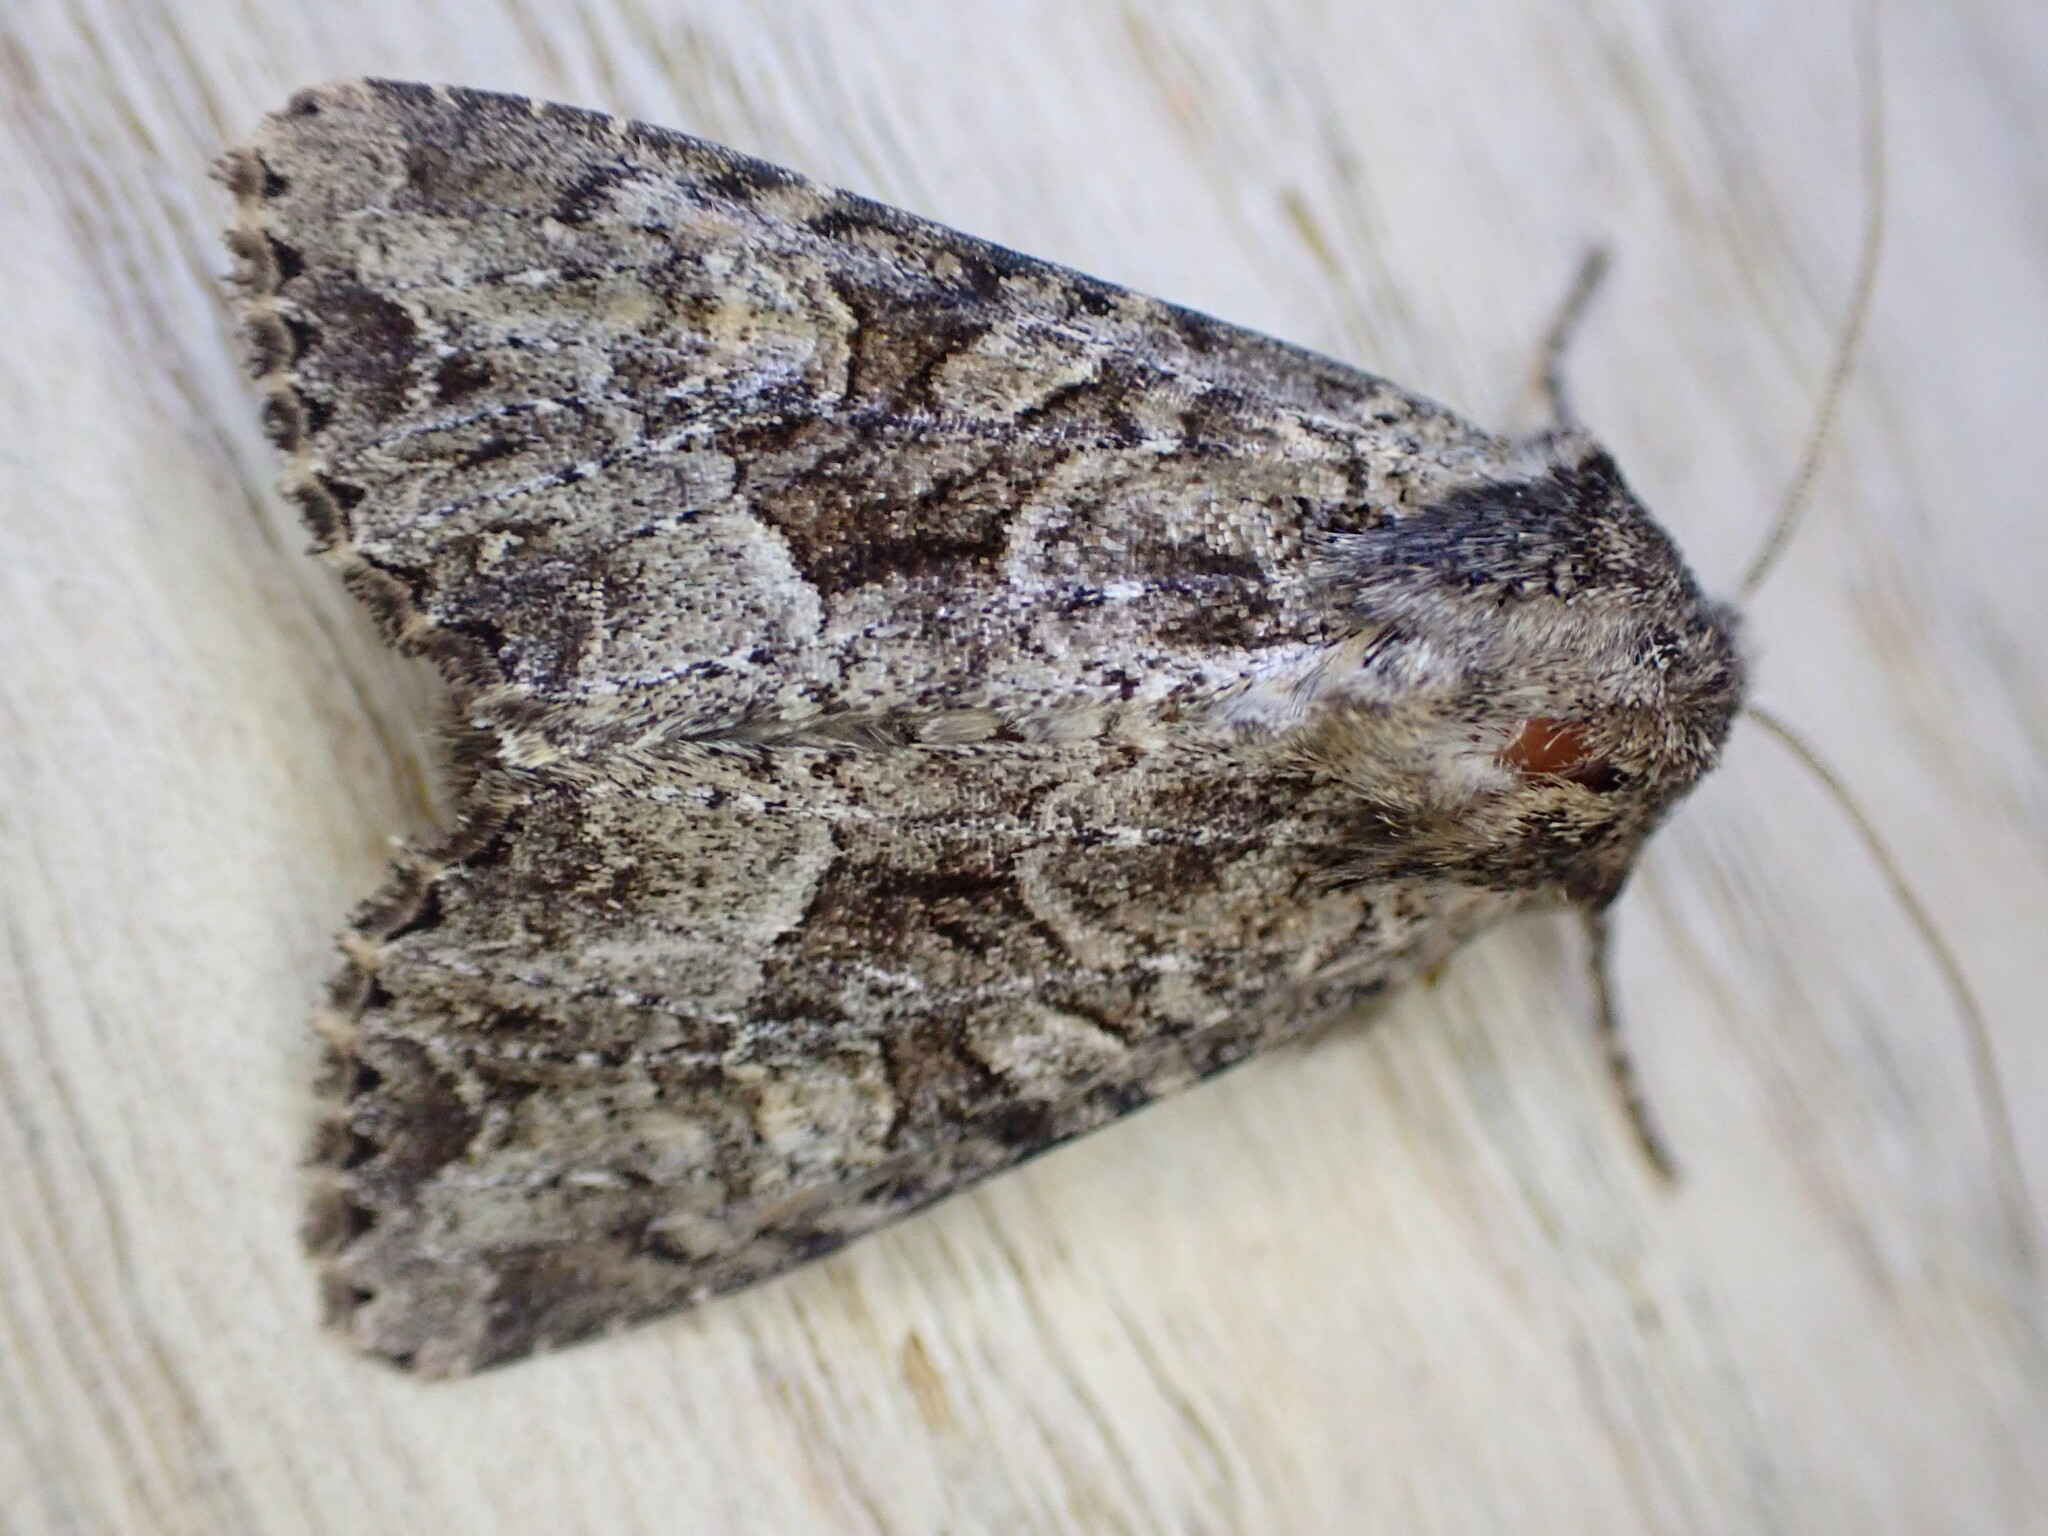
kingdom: Animalia
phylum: Arthropoda
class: Insecta
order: Lepidoptera
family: Noctuidae
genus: Apamea
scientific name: Apamea remissa
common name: Dusky brocade
